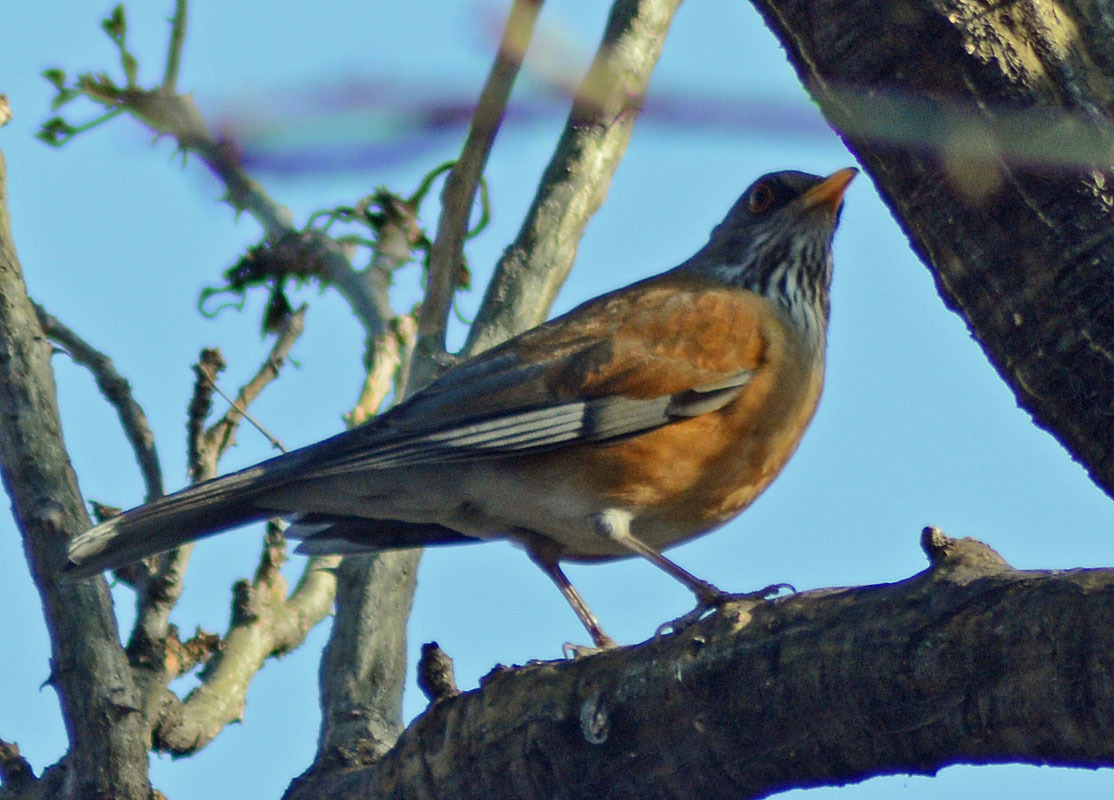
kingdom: Animalia
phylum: Chordata
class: Aves
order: Passeriformes
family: Turdidae
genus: Turdus
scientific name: Turdus rufopalliatus
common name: Rufous-backed robin
